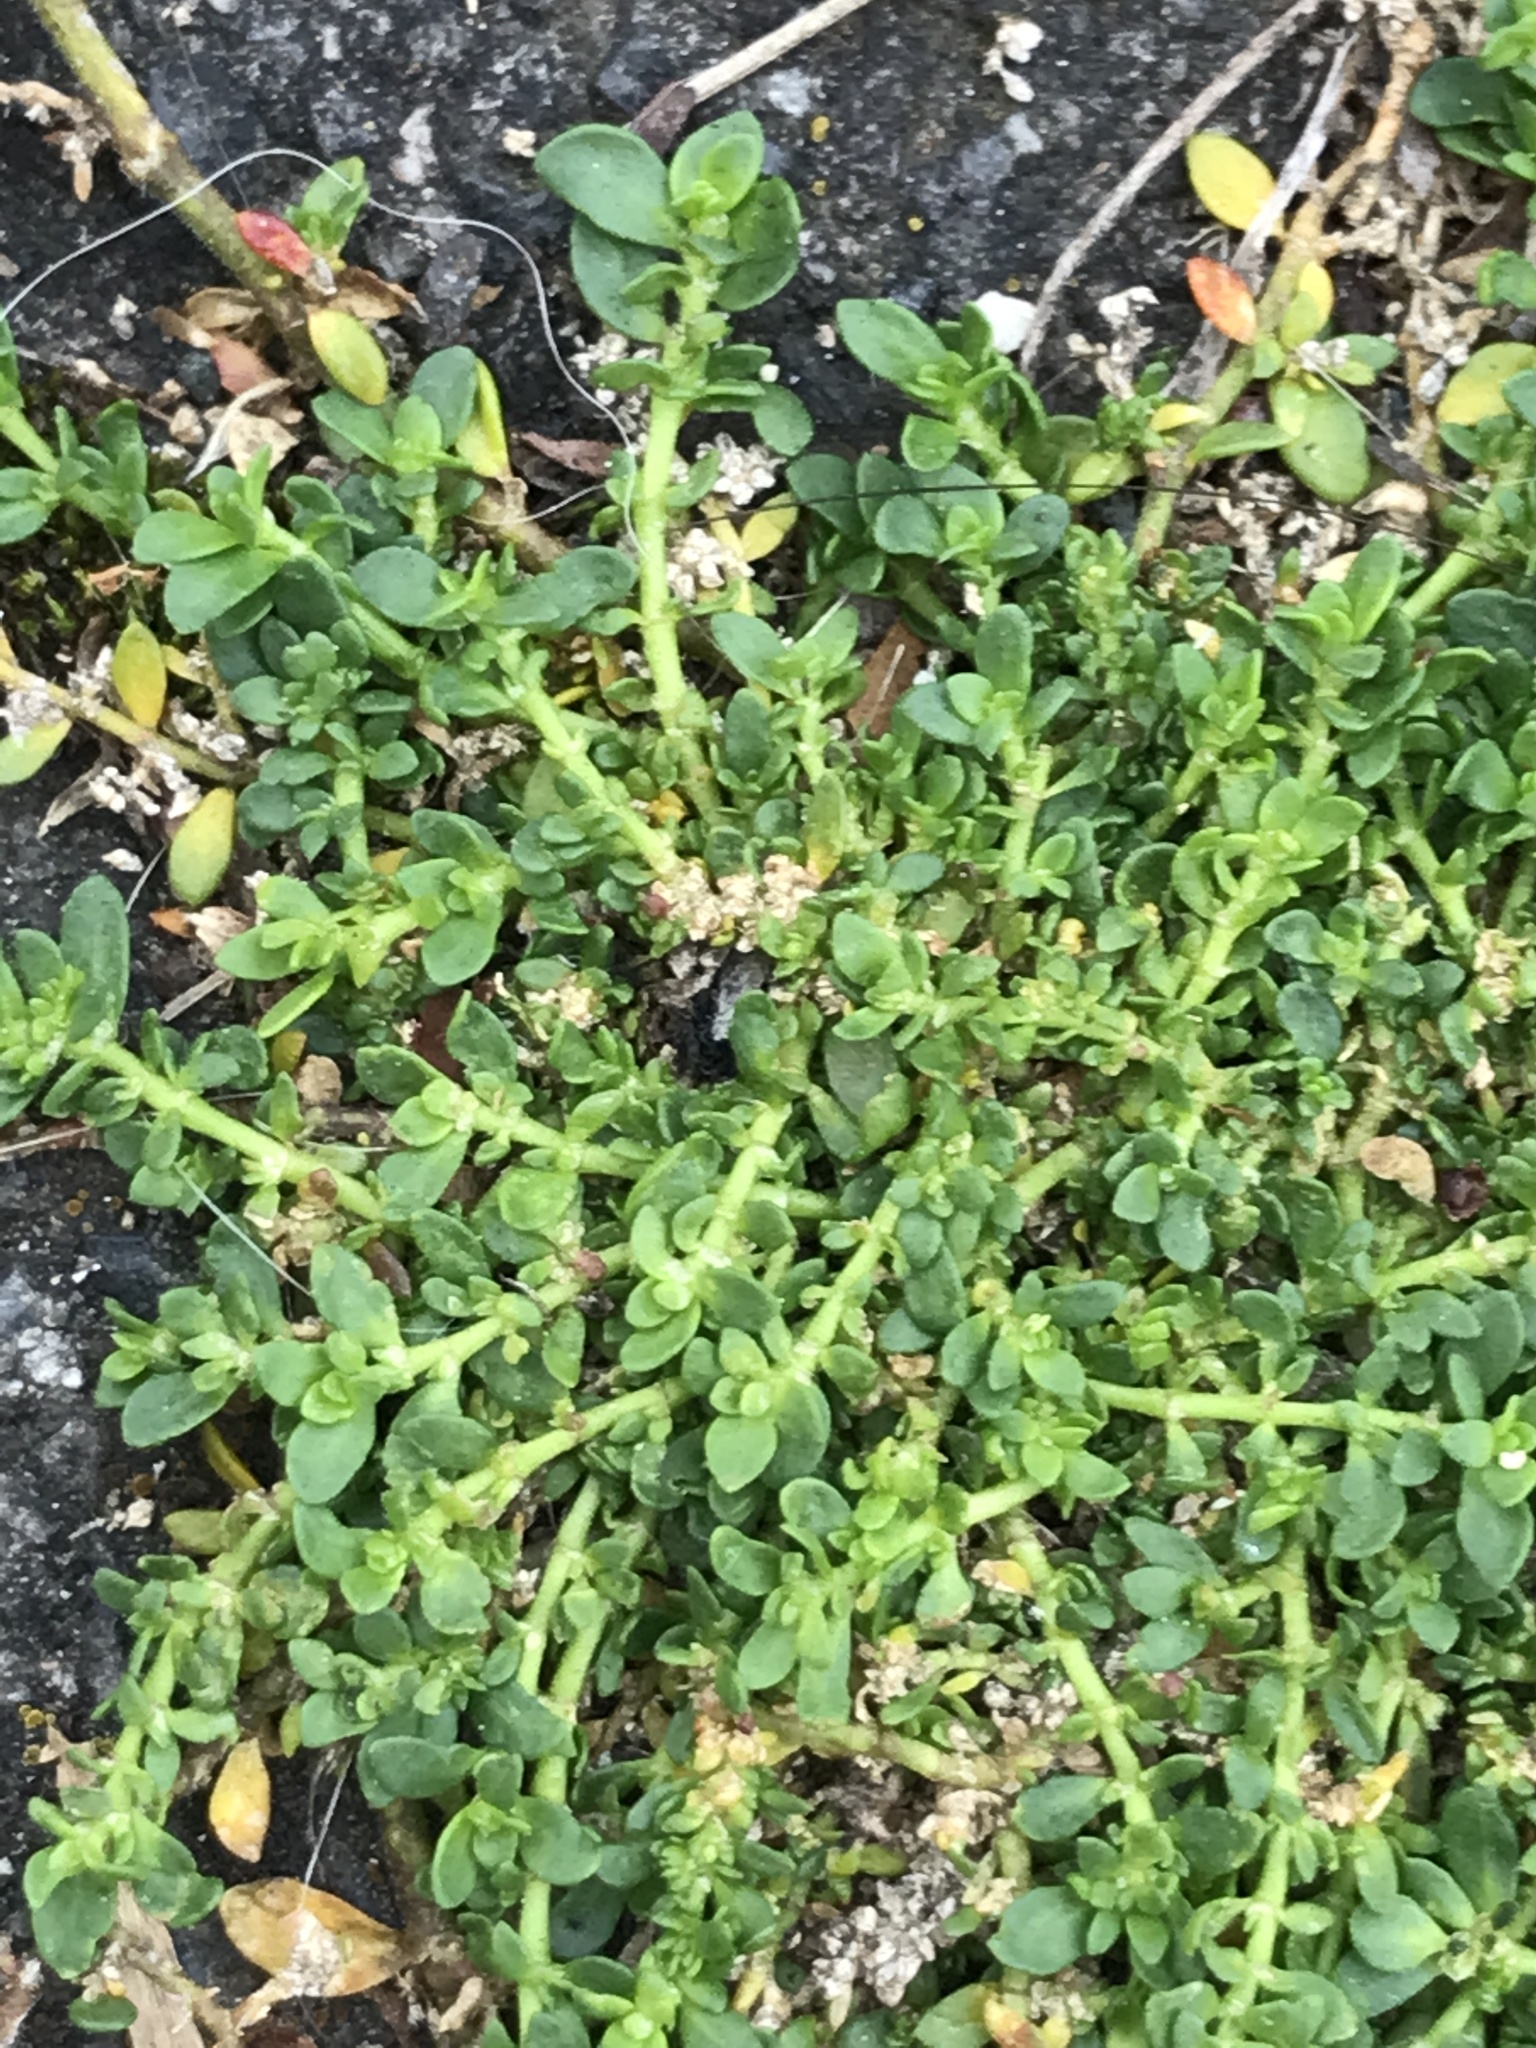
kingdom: Plantae
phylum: Tracheophyta
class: Magnoliopsida
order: Caryophyllales
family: Caryophyllaceae
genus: Herniaria
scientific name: Herniaria glabra
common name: Smooth rupturewort
